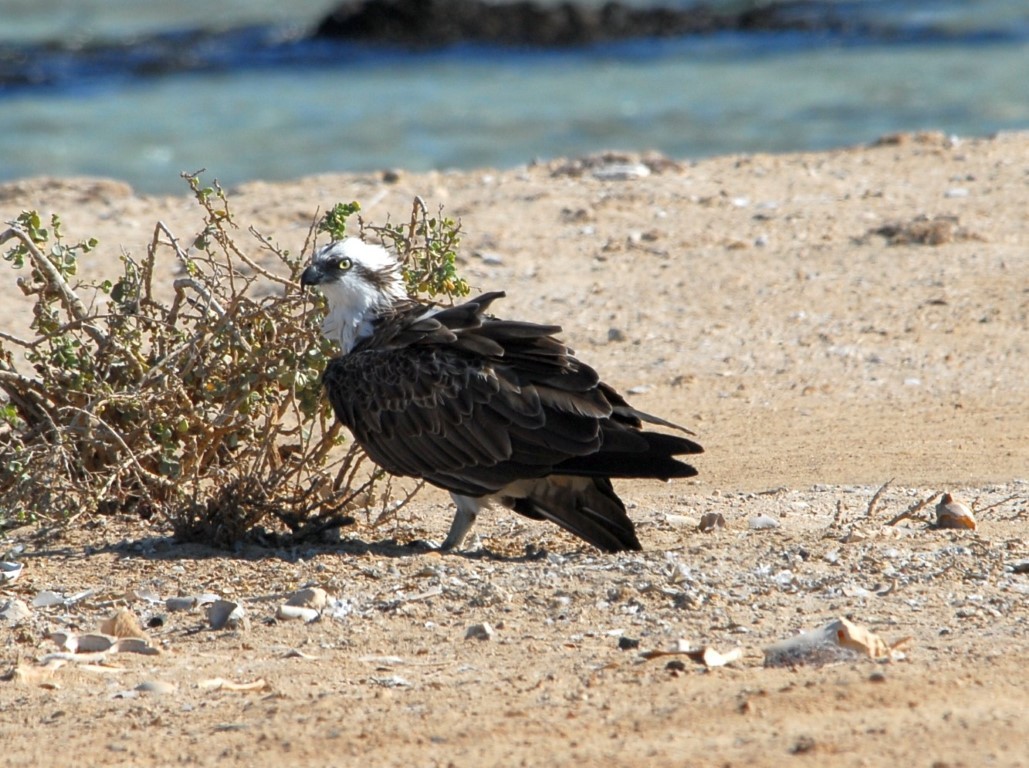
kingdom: Animalia
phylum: Chordata
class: Aves
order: Accipitriformes
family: Pandionidae
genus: Pandion
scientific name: Pandion haliaetus
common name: Osprey
